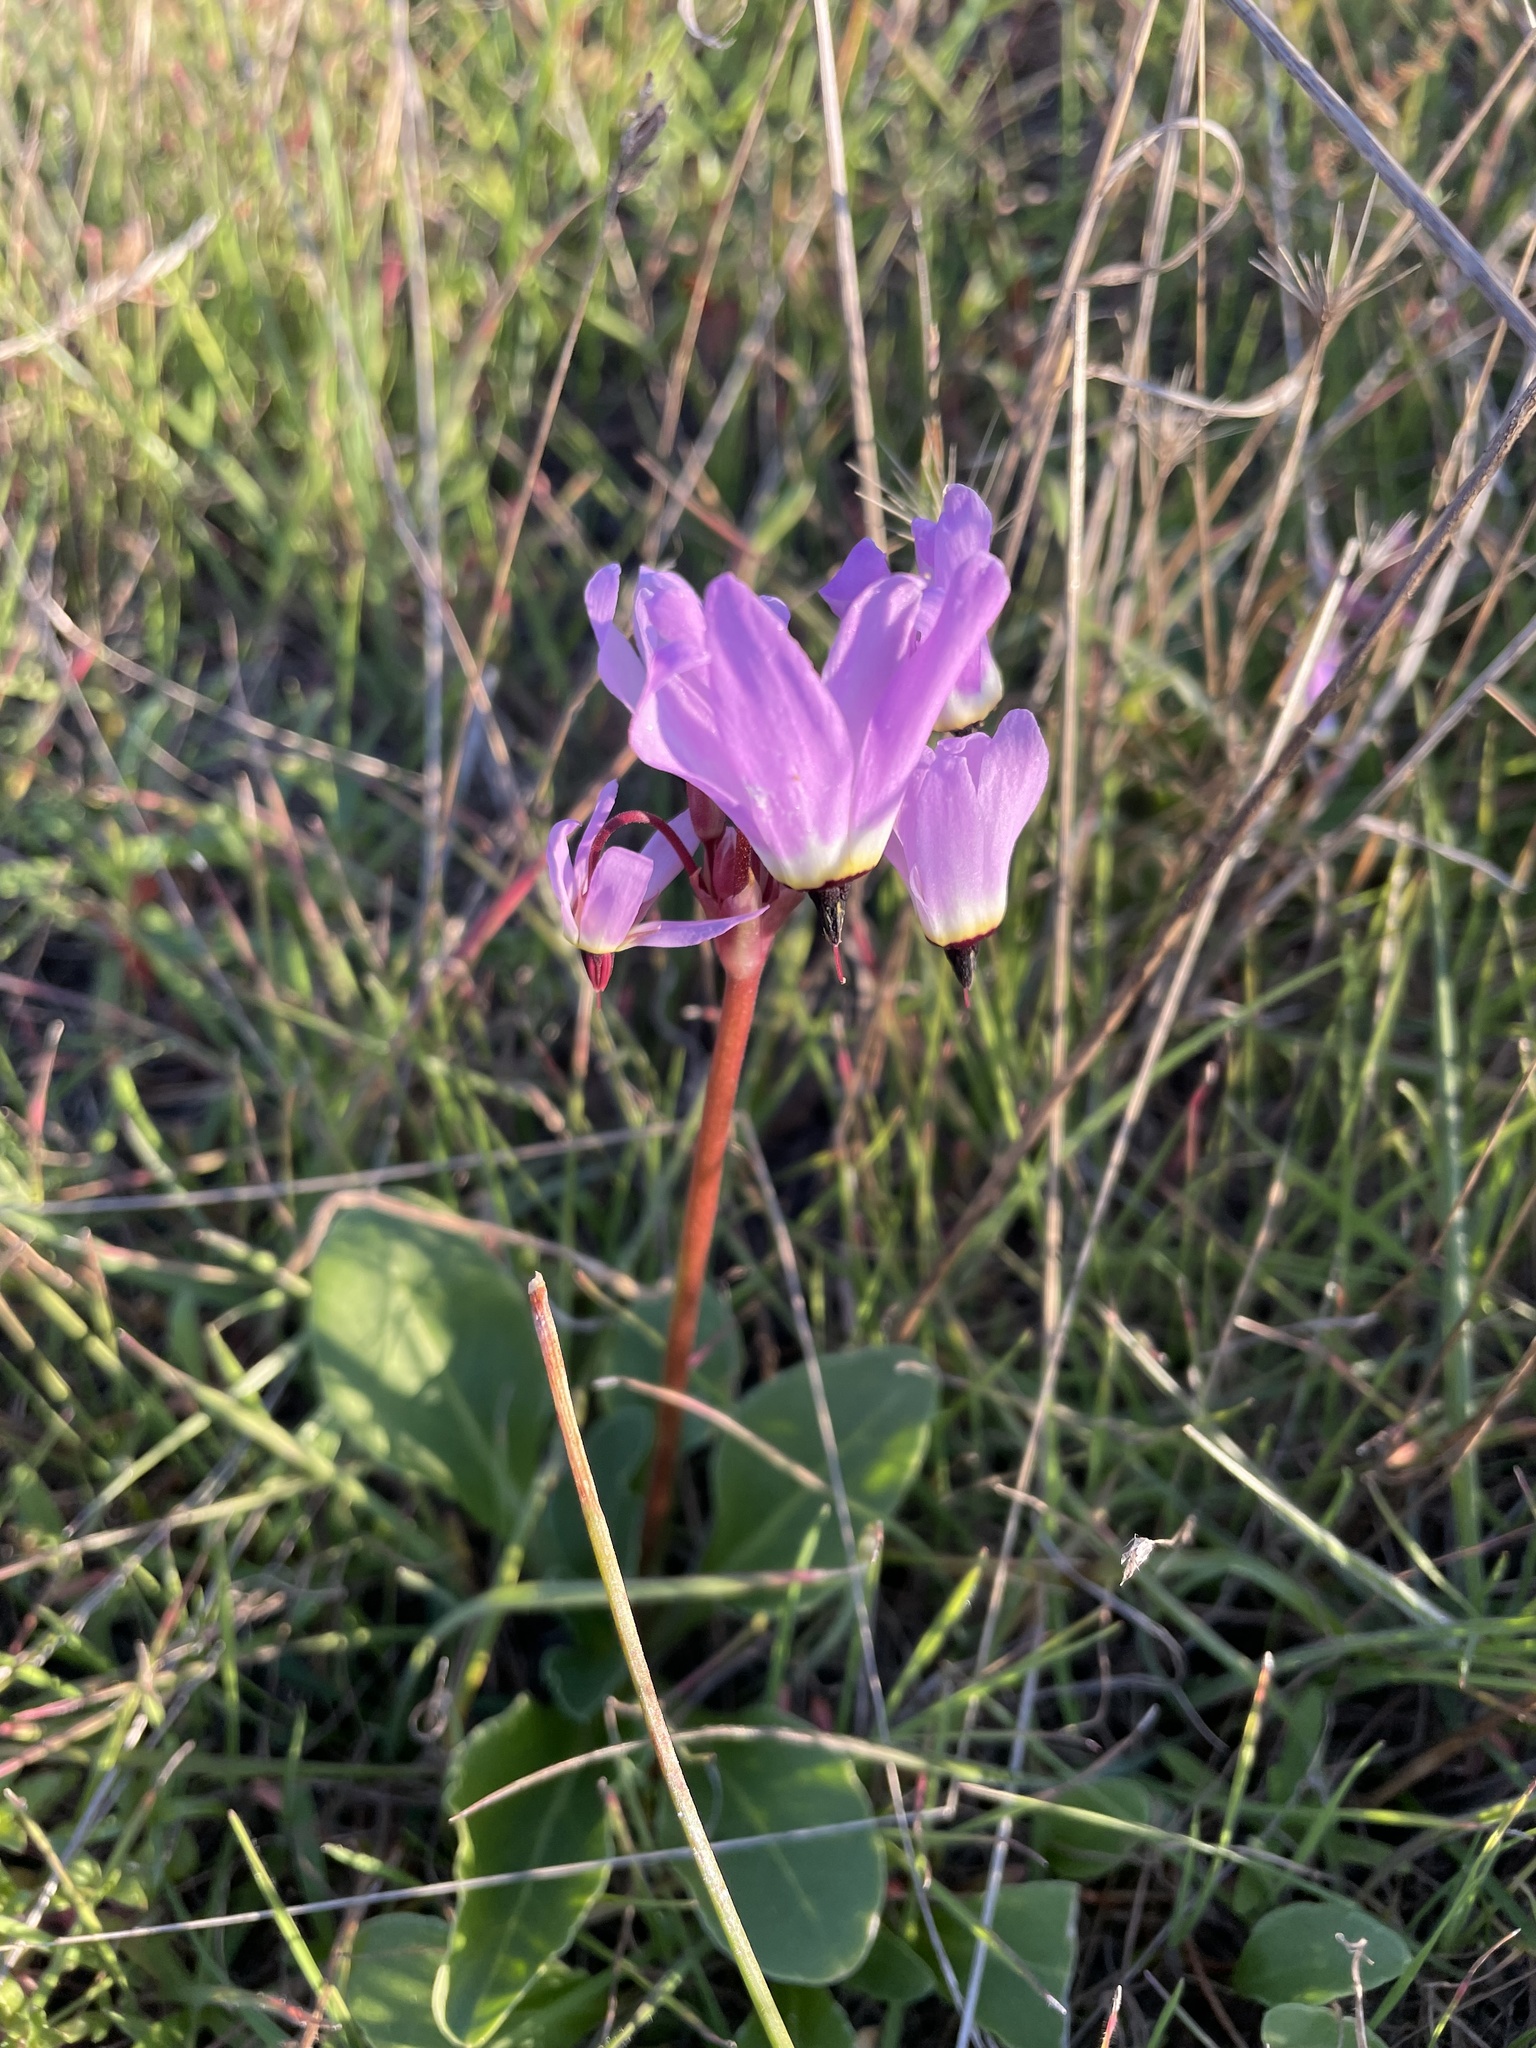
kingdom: Plantae
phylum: Tracheophyta
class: Magnoliopsida
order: Ericales
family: Primulaceae
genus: Dodecatheon
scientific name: Dodecatheon hendersonii
